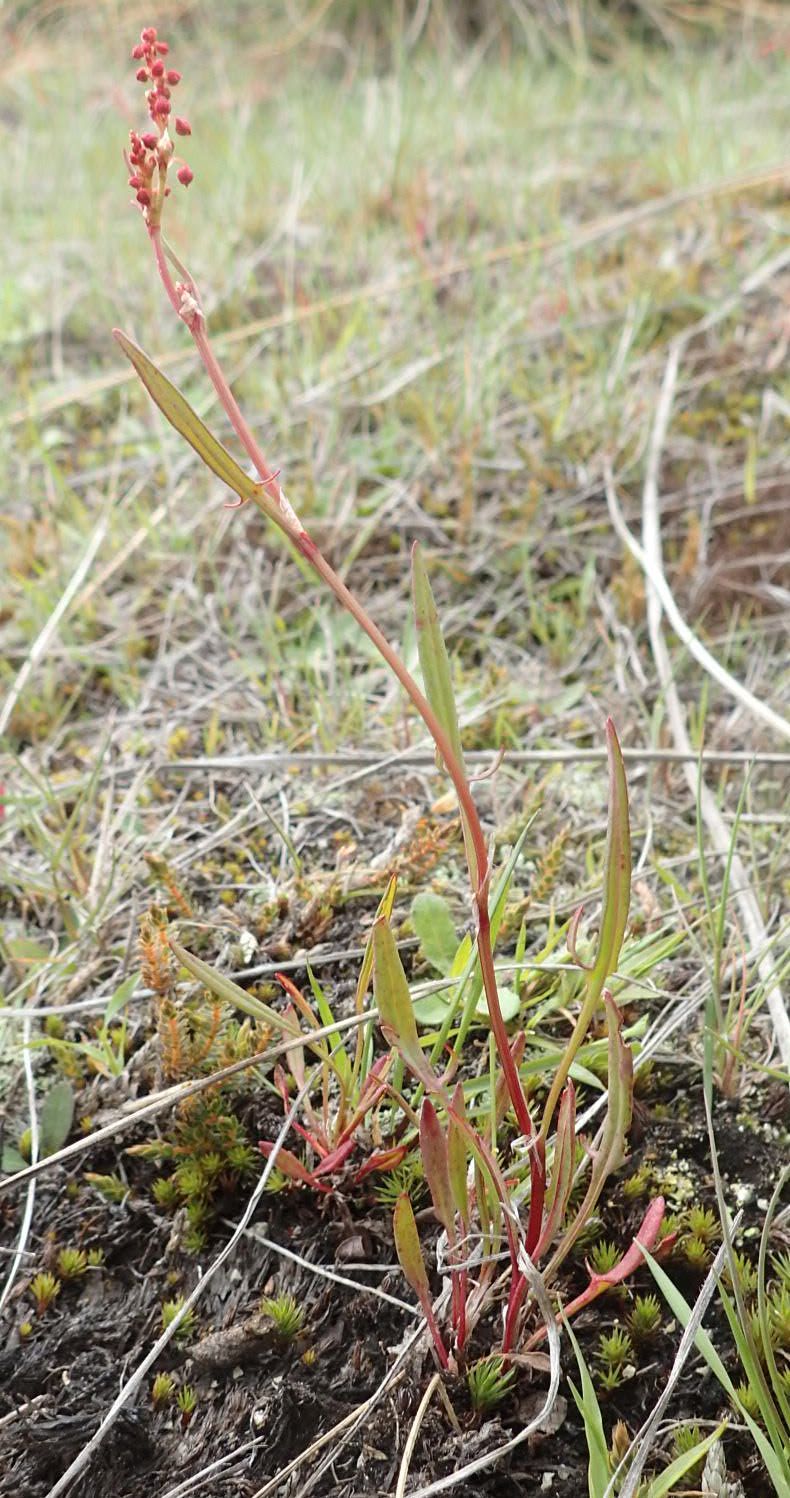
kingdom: Plantae
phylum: Tracheophyta
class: Magnoliopsida
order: Caryophyllales
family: Polygonaceae
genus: Rumex
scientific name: Rumex acetosella
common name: Common sheep sorrel
